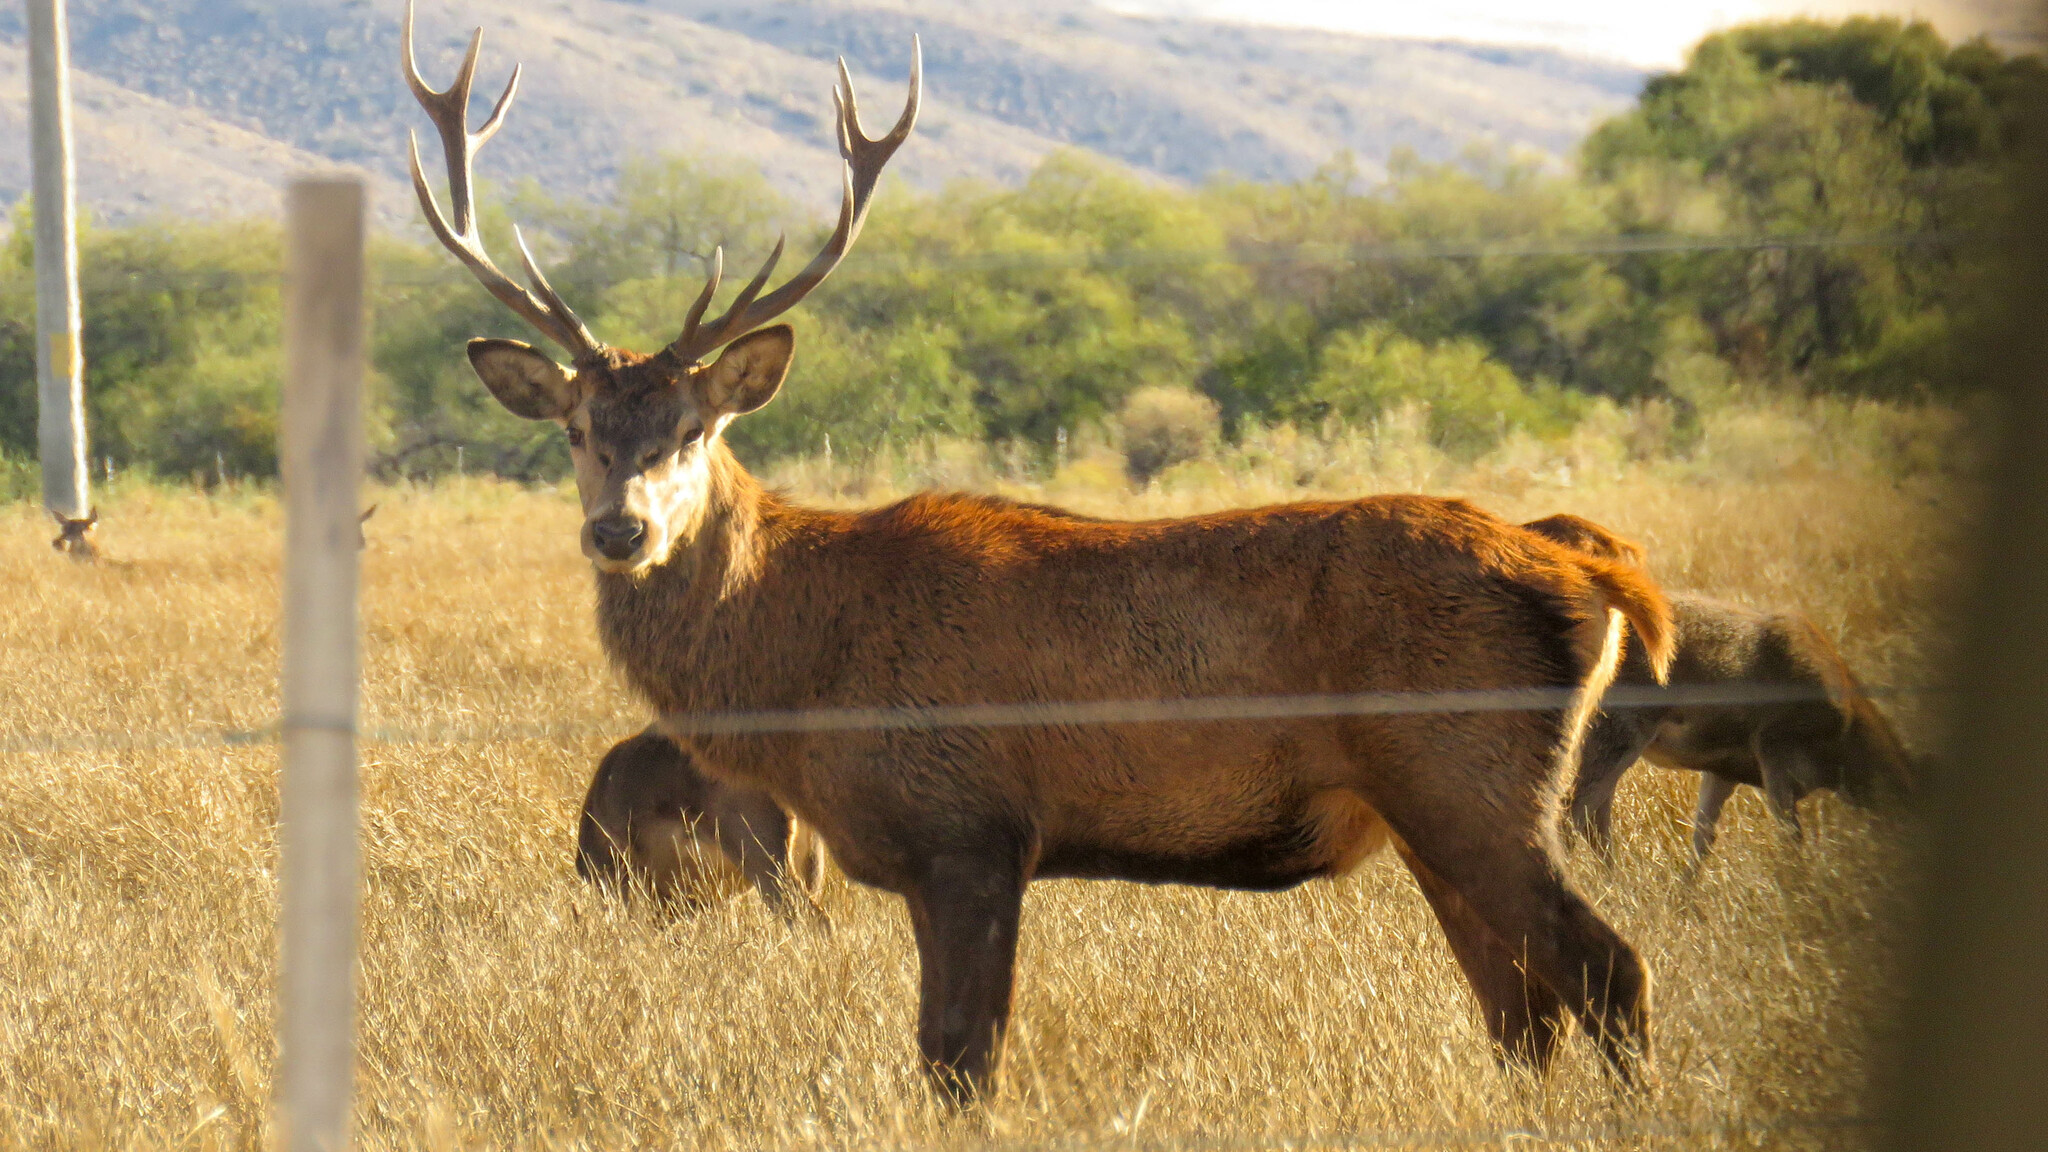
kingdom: Animalia
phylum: Chordata
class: Mammalia
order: Artiodactyla
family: Cervidae
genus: Cervus
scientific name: Cervus elaphus
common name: Red deer
